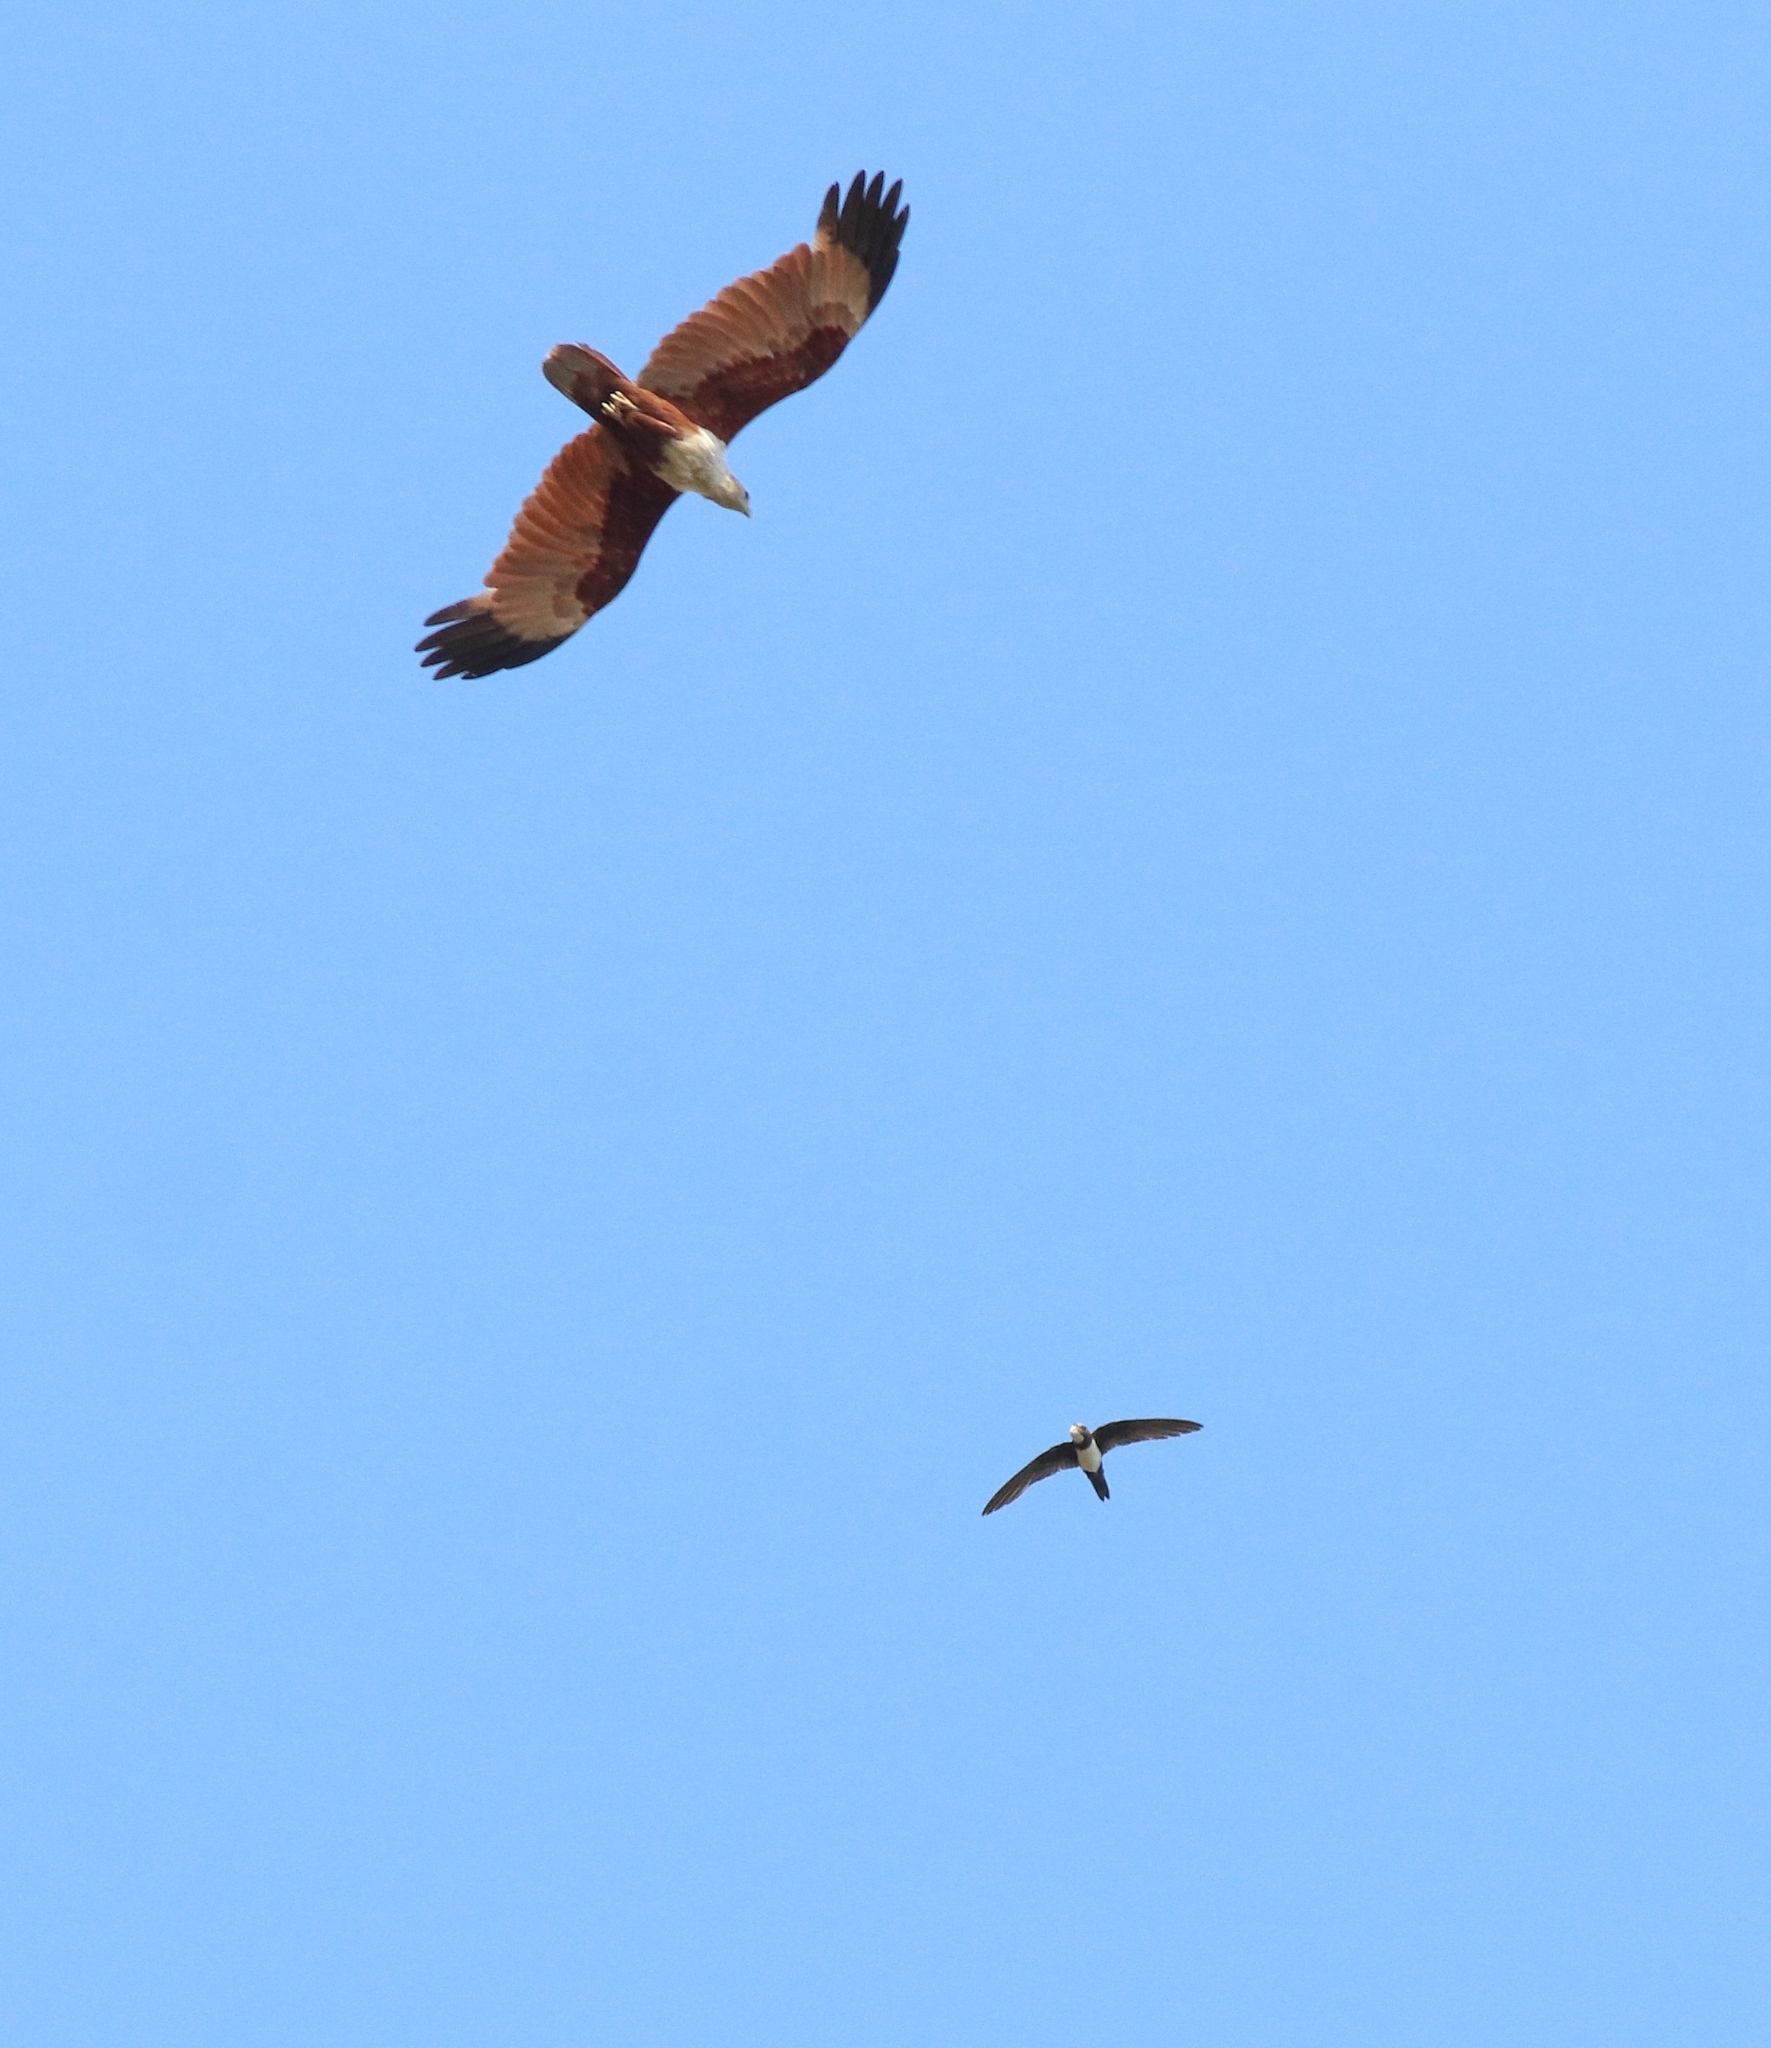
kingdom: Animalia
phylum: Chordata
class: Aves
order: Apodiformes
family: Apodidae
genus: Tachymarptis
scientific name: Tachymarptis melba
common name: Alpine swift
